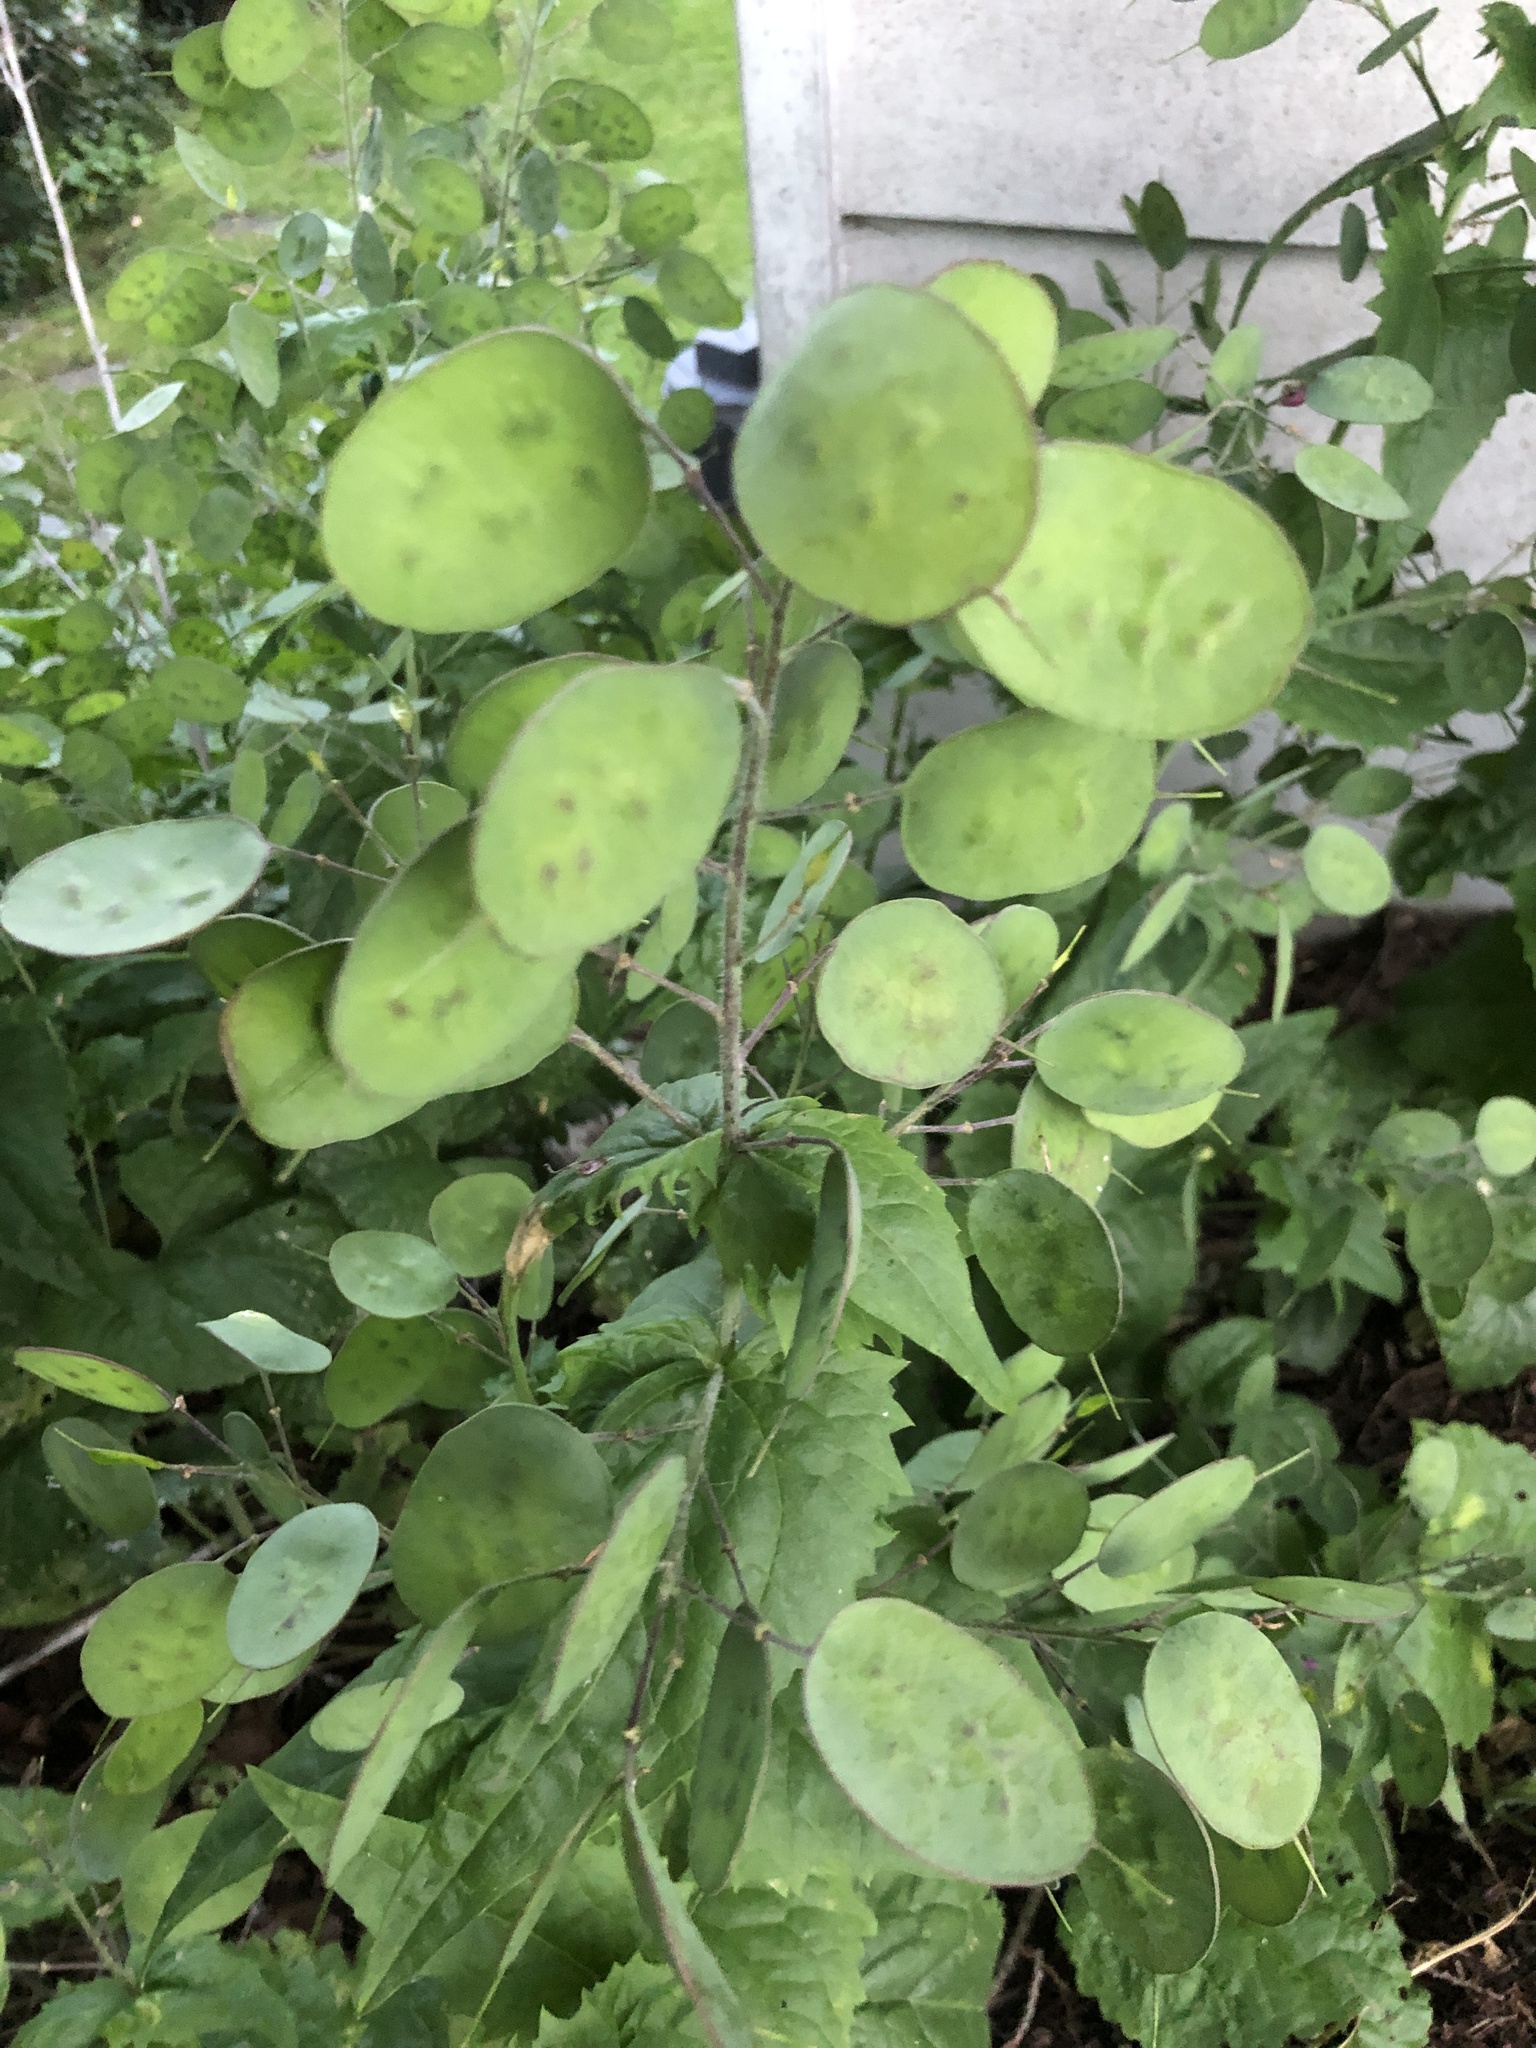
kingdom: Plantae
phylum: Tracheophyta
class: Magnoliopsida
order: Brassicales
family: Brassicaceae
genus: Lunaria
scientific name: Lunaria annua
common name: Honesty
